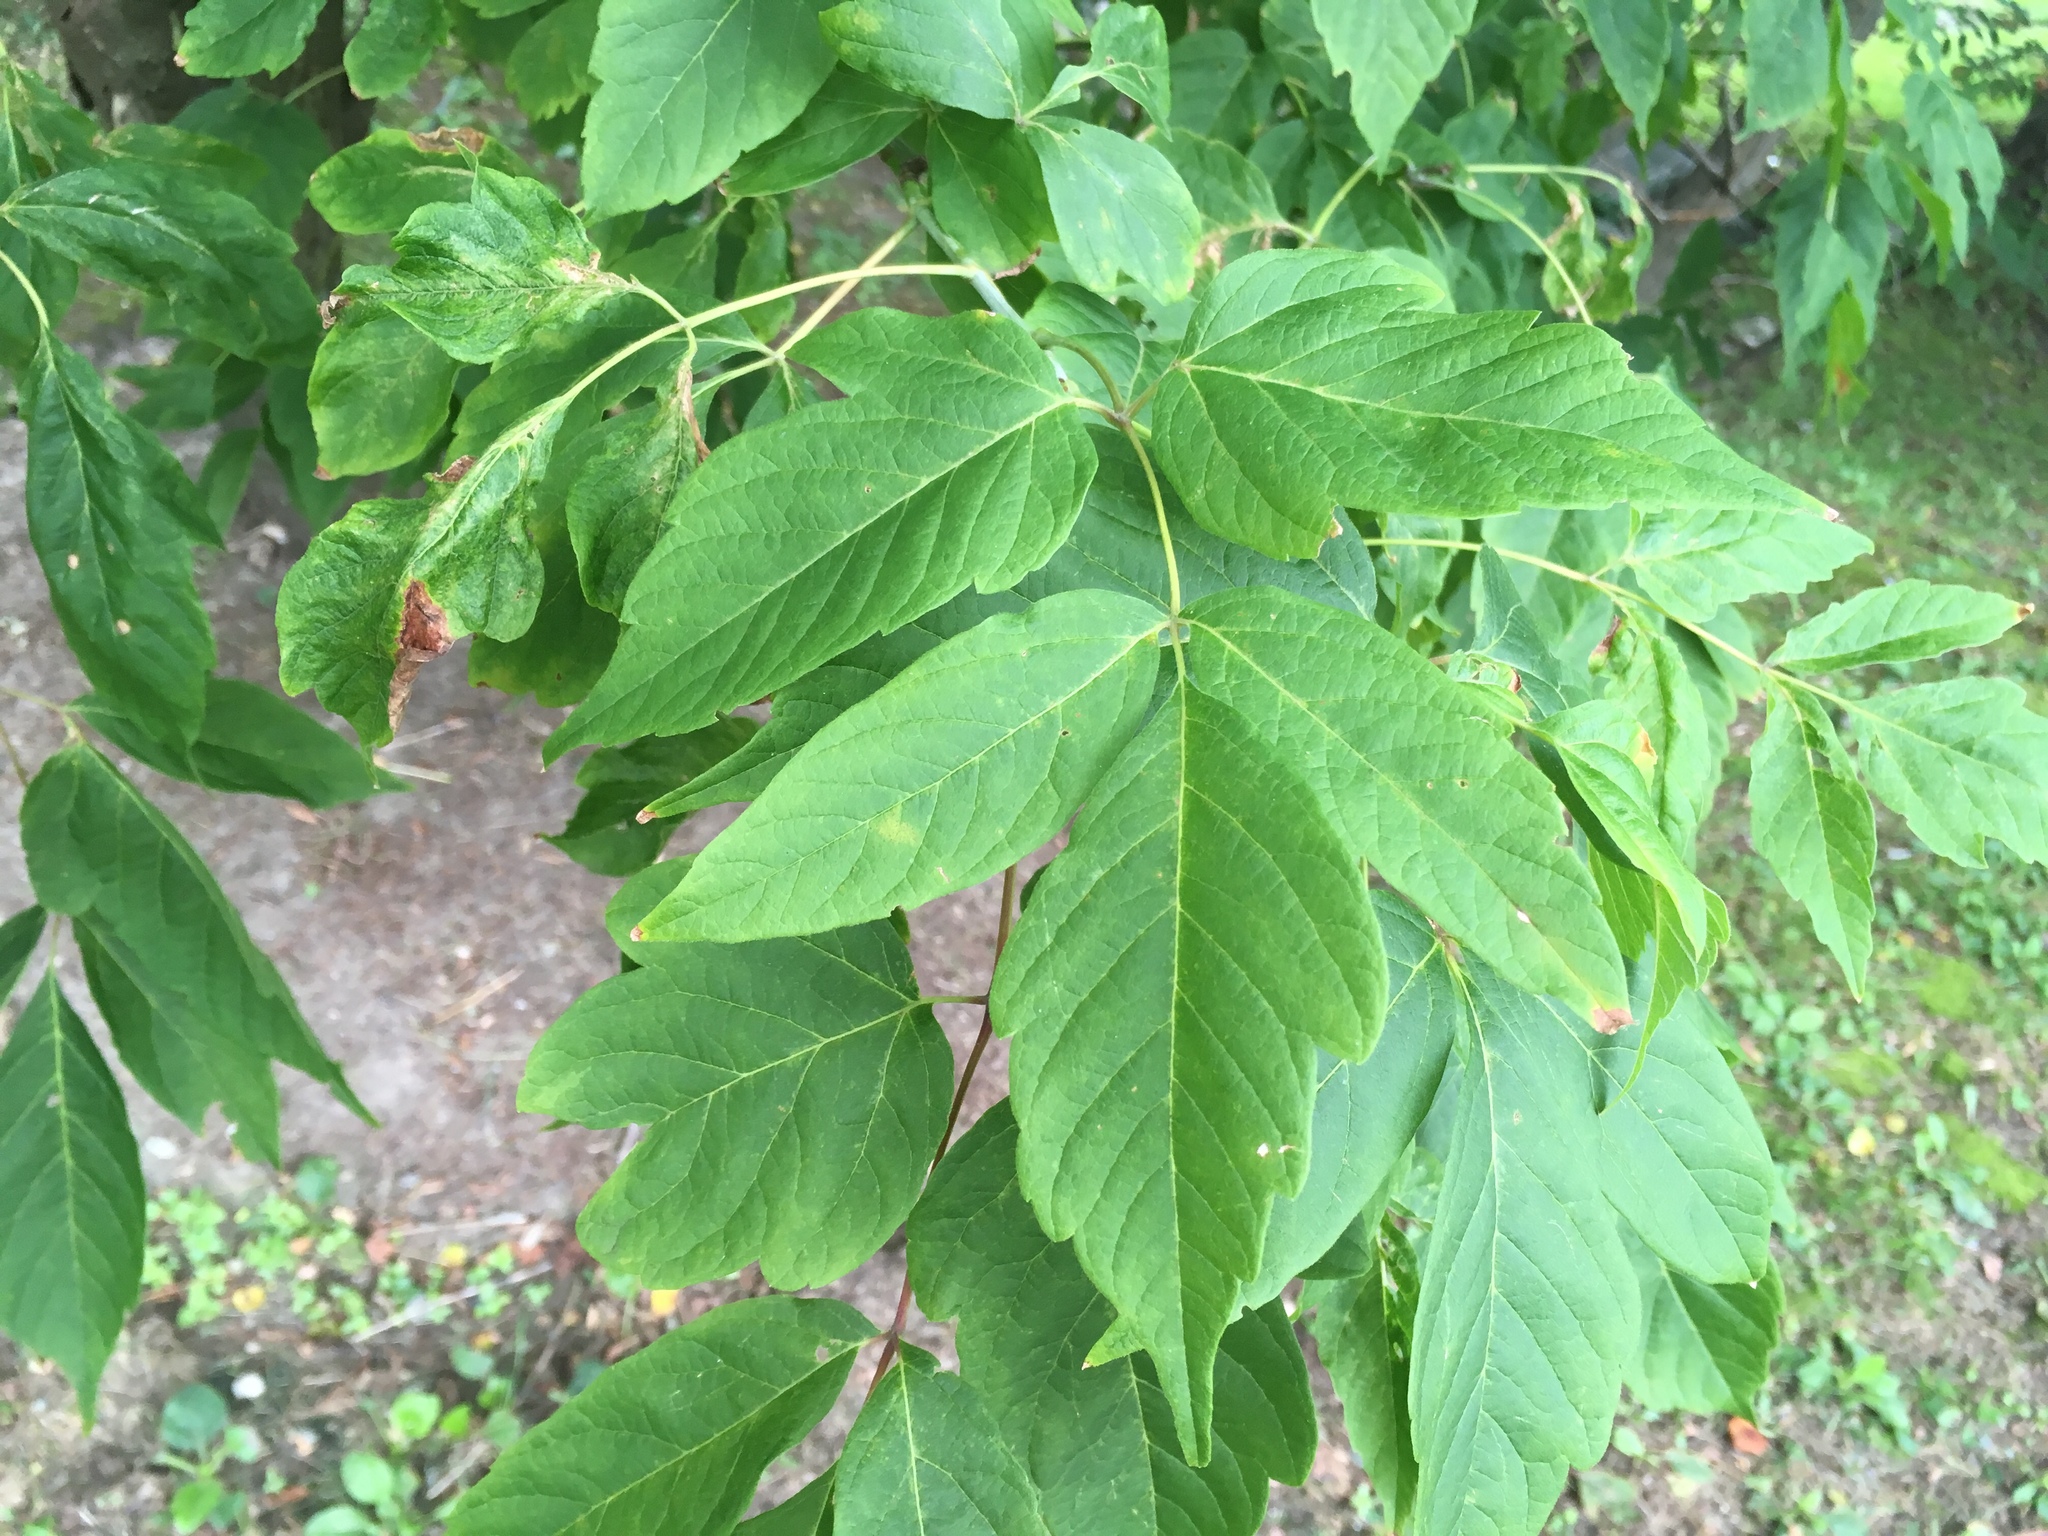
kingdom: Plantae
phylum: Tracheophyta
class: Magnoliopsida
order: Sapindales
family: Sapindaceae
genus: Acer
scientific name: Acer negundo
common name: Ashleaf maple
